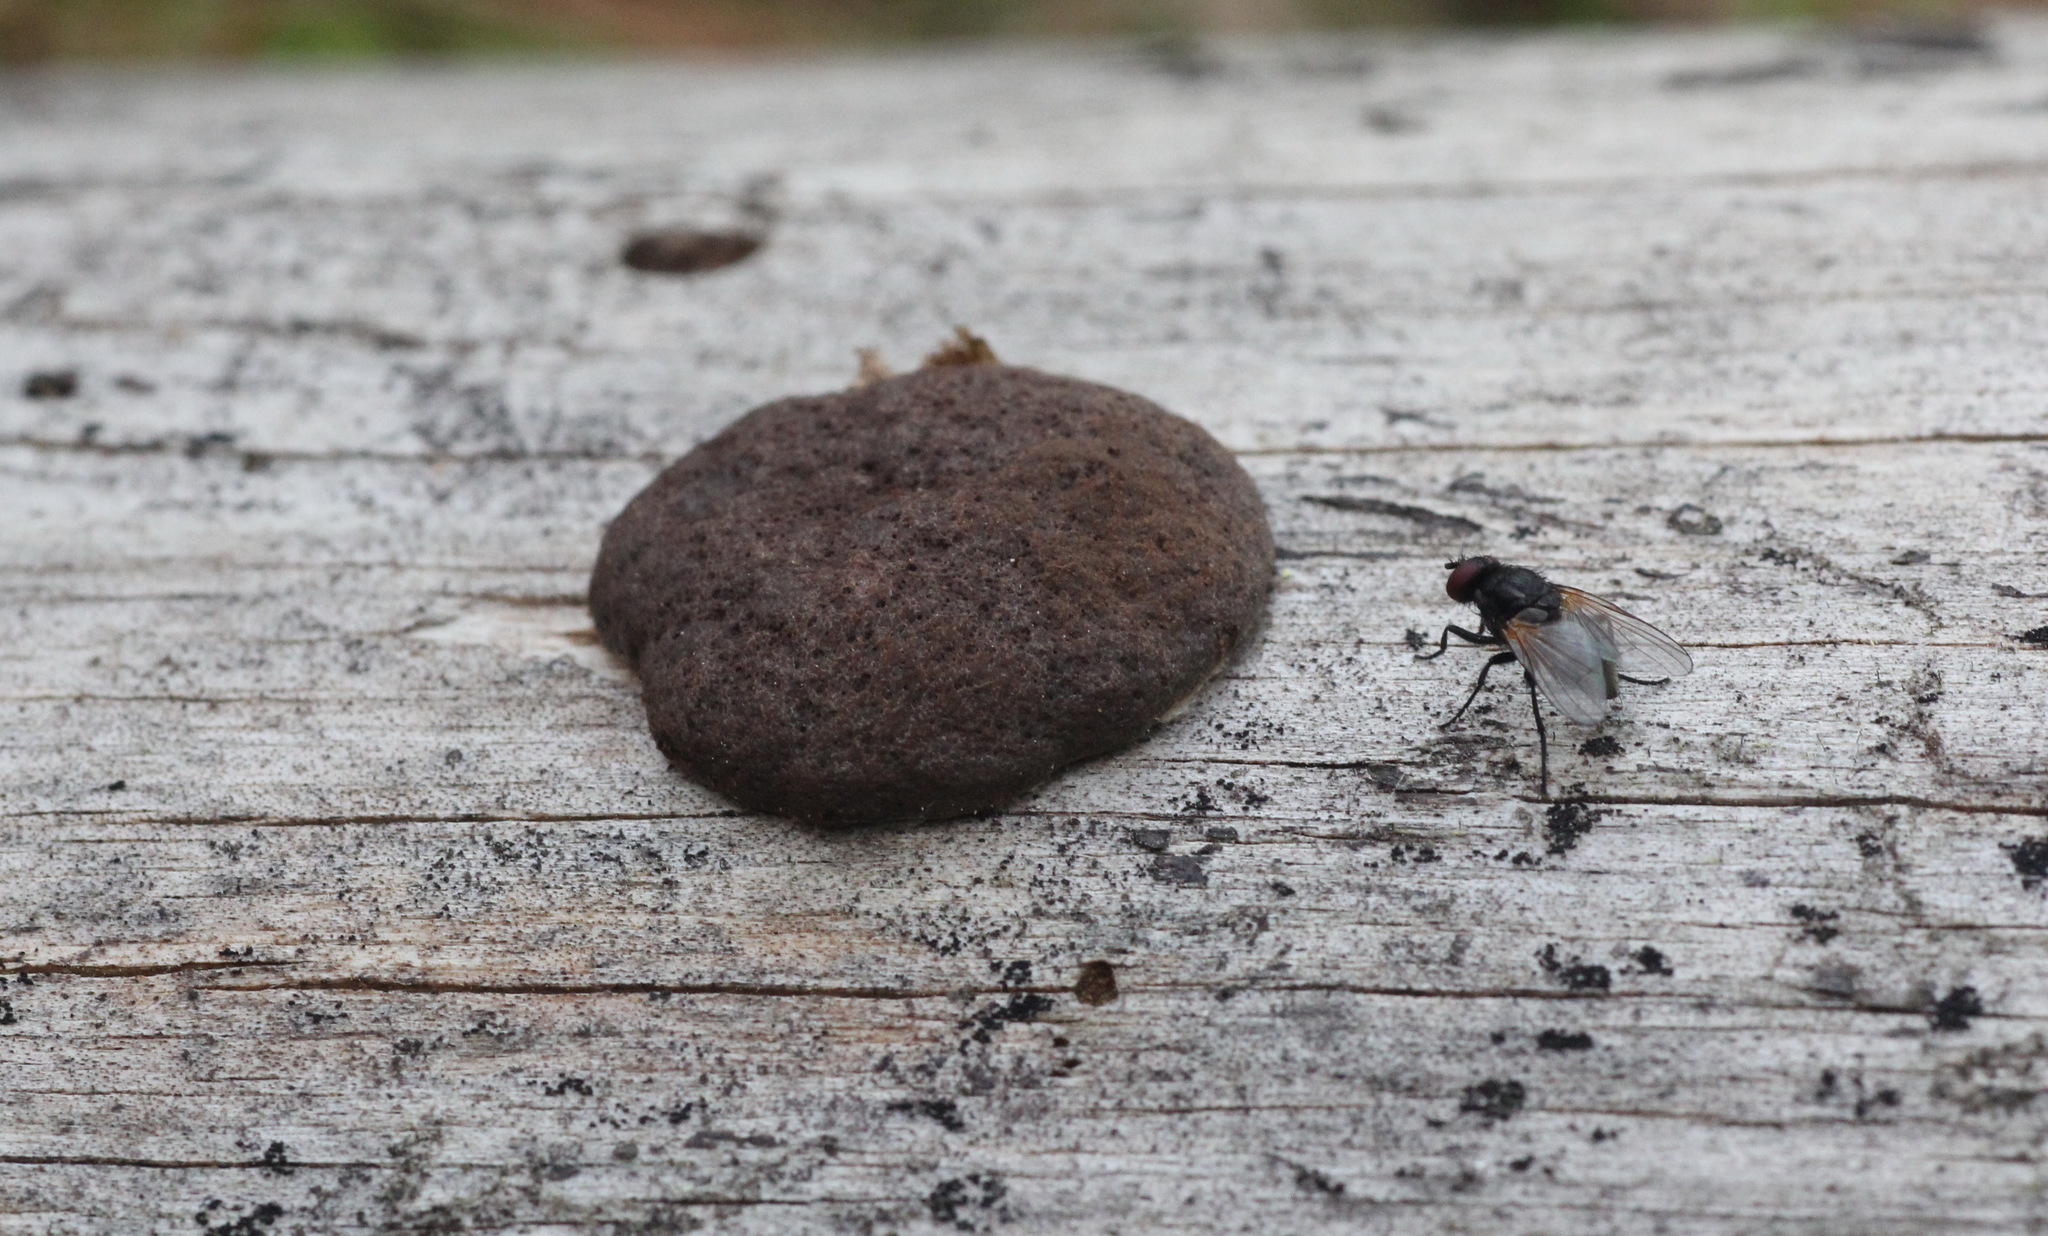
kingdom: Protozoa
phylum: Mycetozoa
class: Myxomycetes
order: Cribrariales
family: Tubiferaceae
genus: Reticularia
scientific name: Reticularia intermedia
